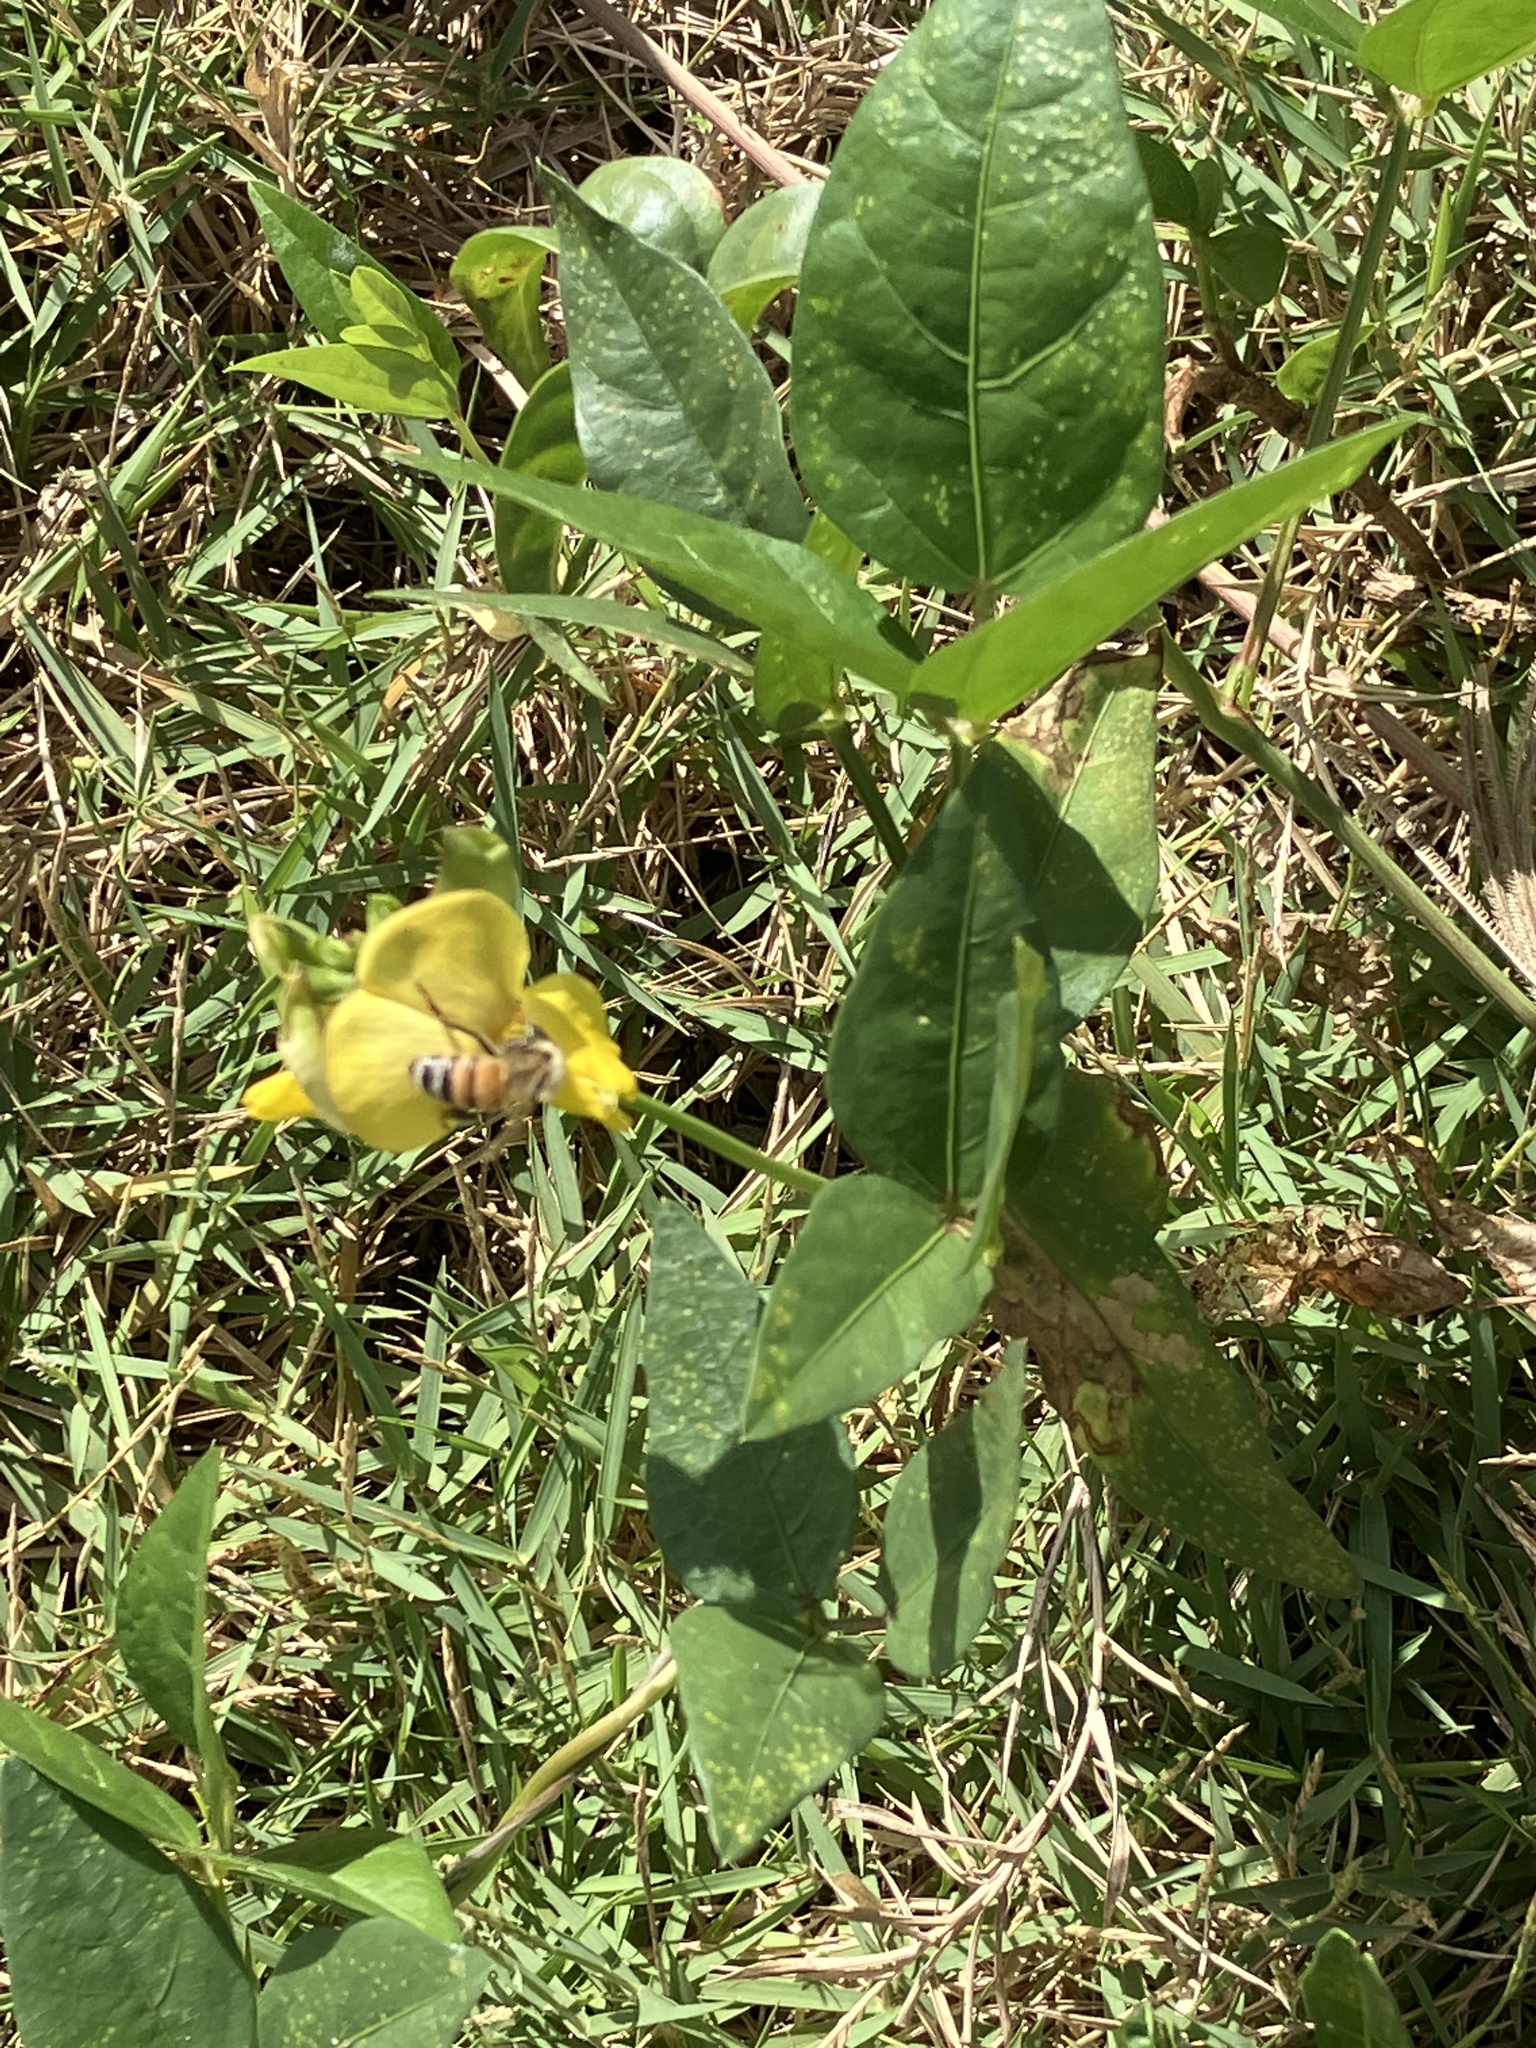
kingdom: Plantae
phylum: Tracheophyta
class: Magnoliopsida
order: Fabales
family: Fabaceae
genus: Vigna
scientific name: Vigna luteola
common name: Hairypod cowpea
